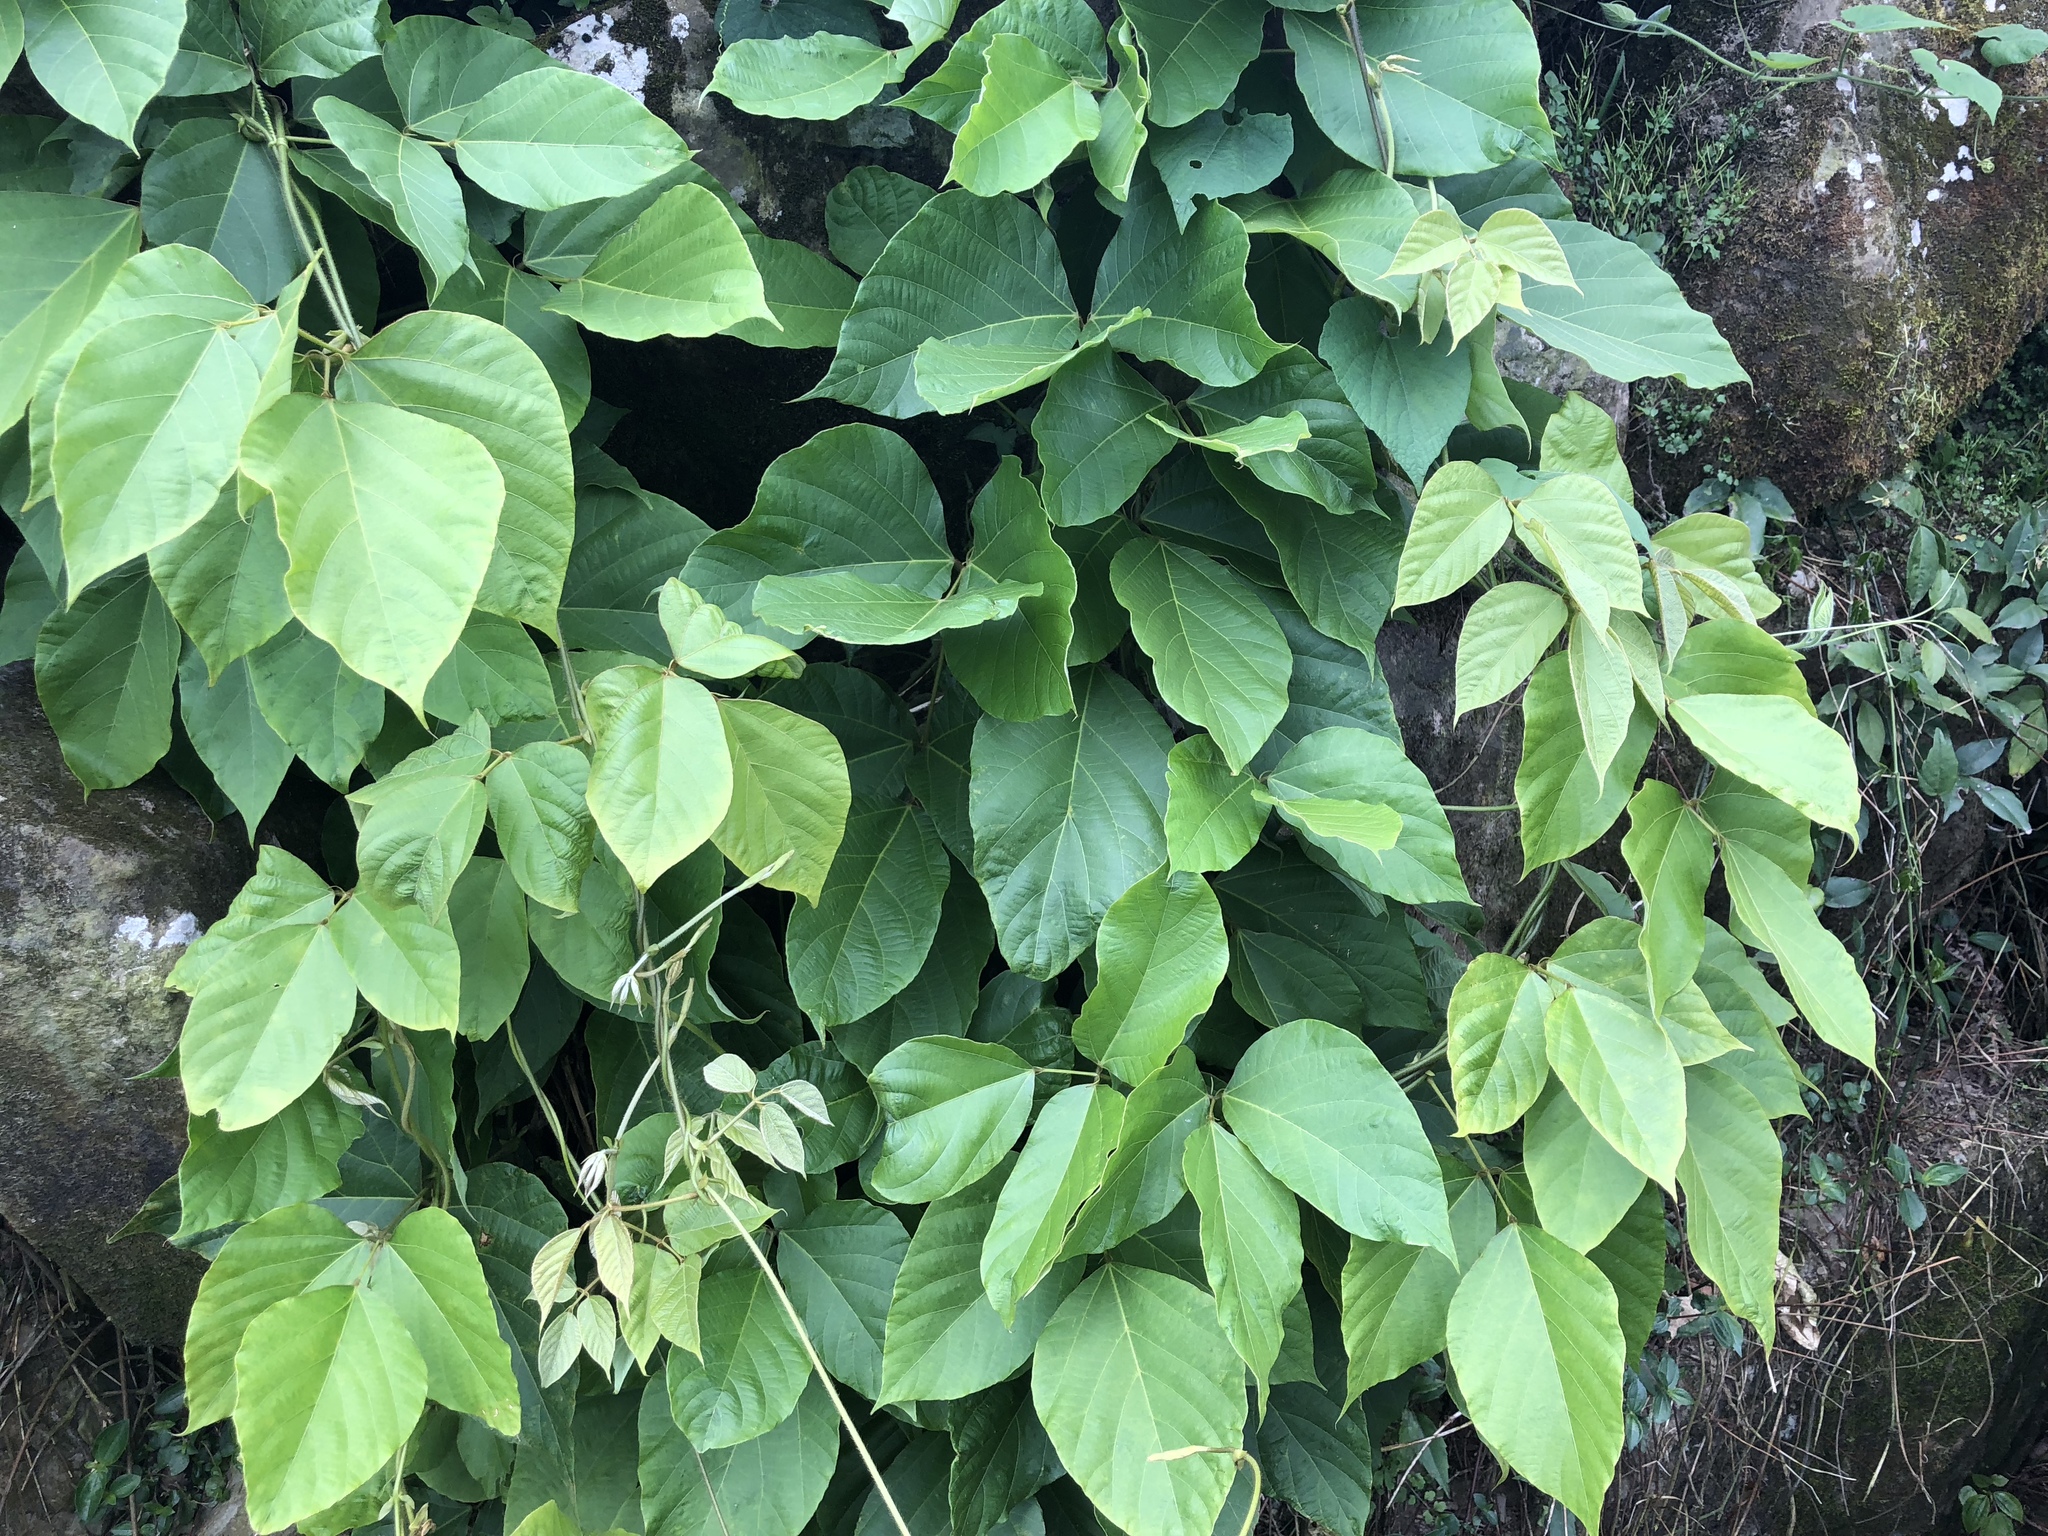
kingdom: Plantae
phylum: Tracheophyta
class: Magnoliopsida
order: Fabales
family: Fabaceae
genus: Pueraria
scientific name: Pueraria montana
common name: Kudzu
